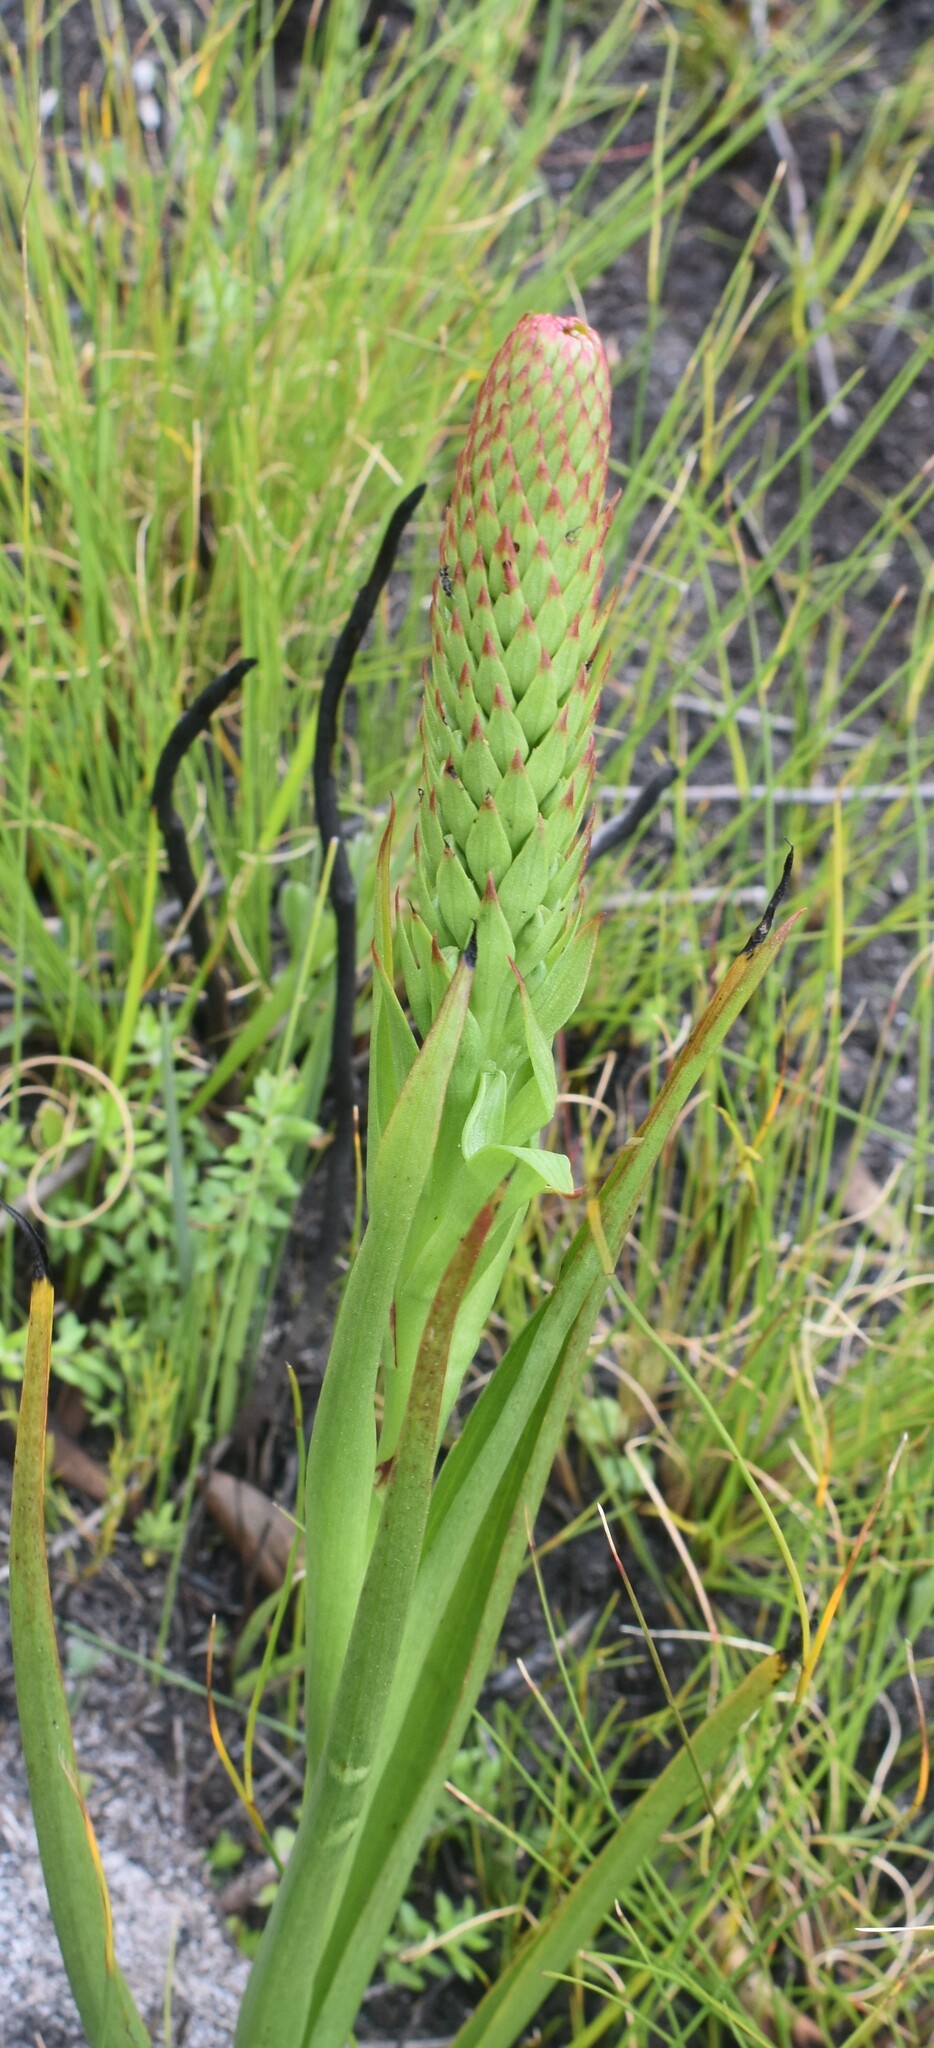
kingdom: Plantae
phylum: Tracheophyta
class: Liliopsida
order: Asparagales
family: Orchidaceae
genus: Evotella
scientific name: Evotella carnosa
